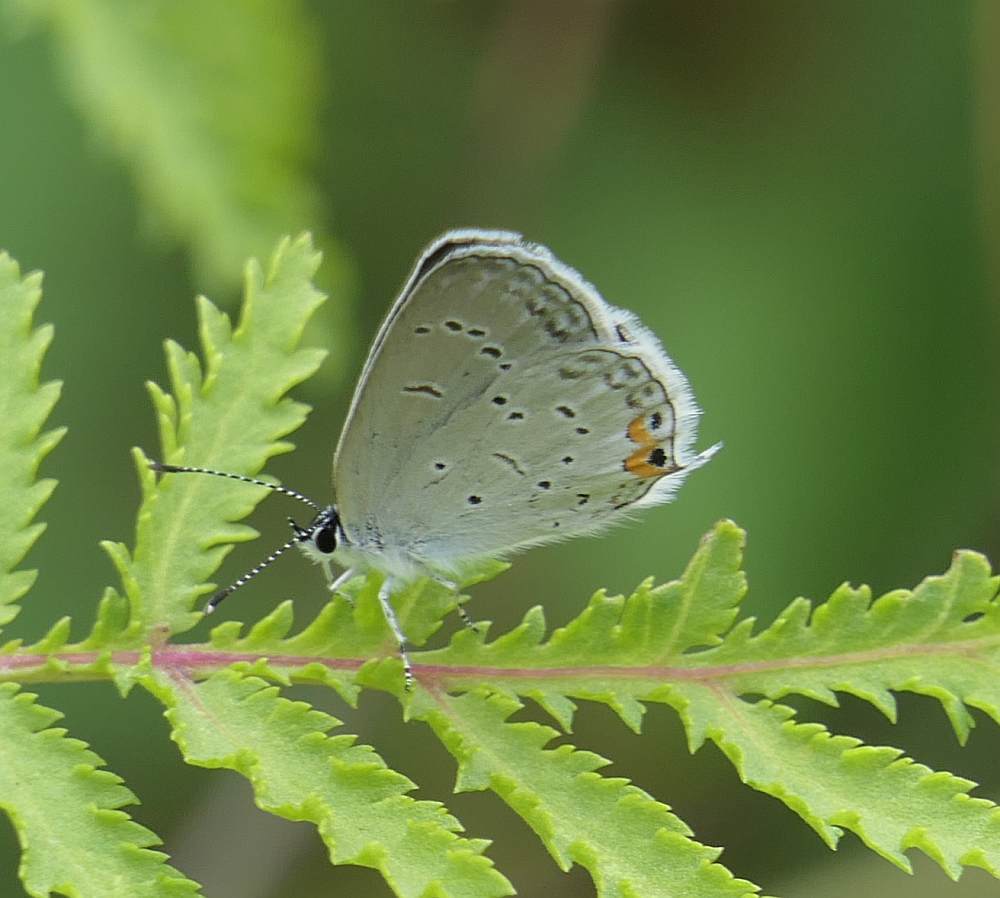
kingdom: Animalia
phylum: Arthropoda
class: Insecta
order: Lepidoptera
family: Lycaenidae
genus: Elkalyce
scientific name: Elkalyce comyntas
